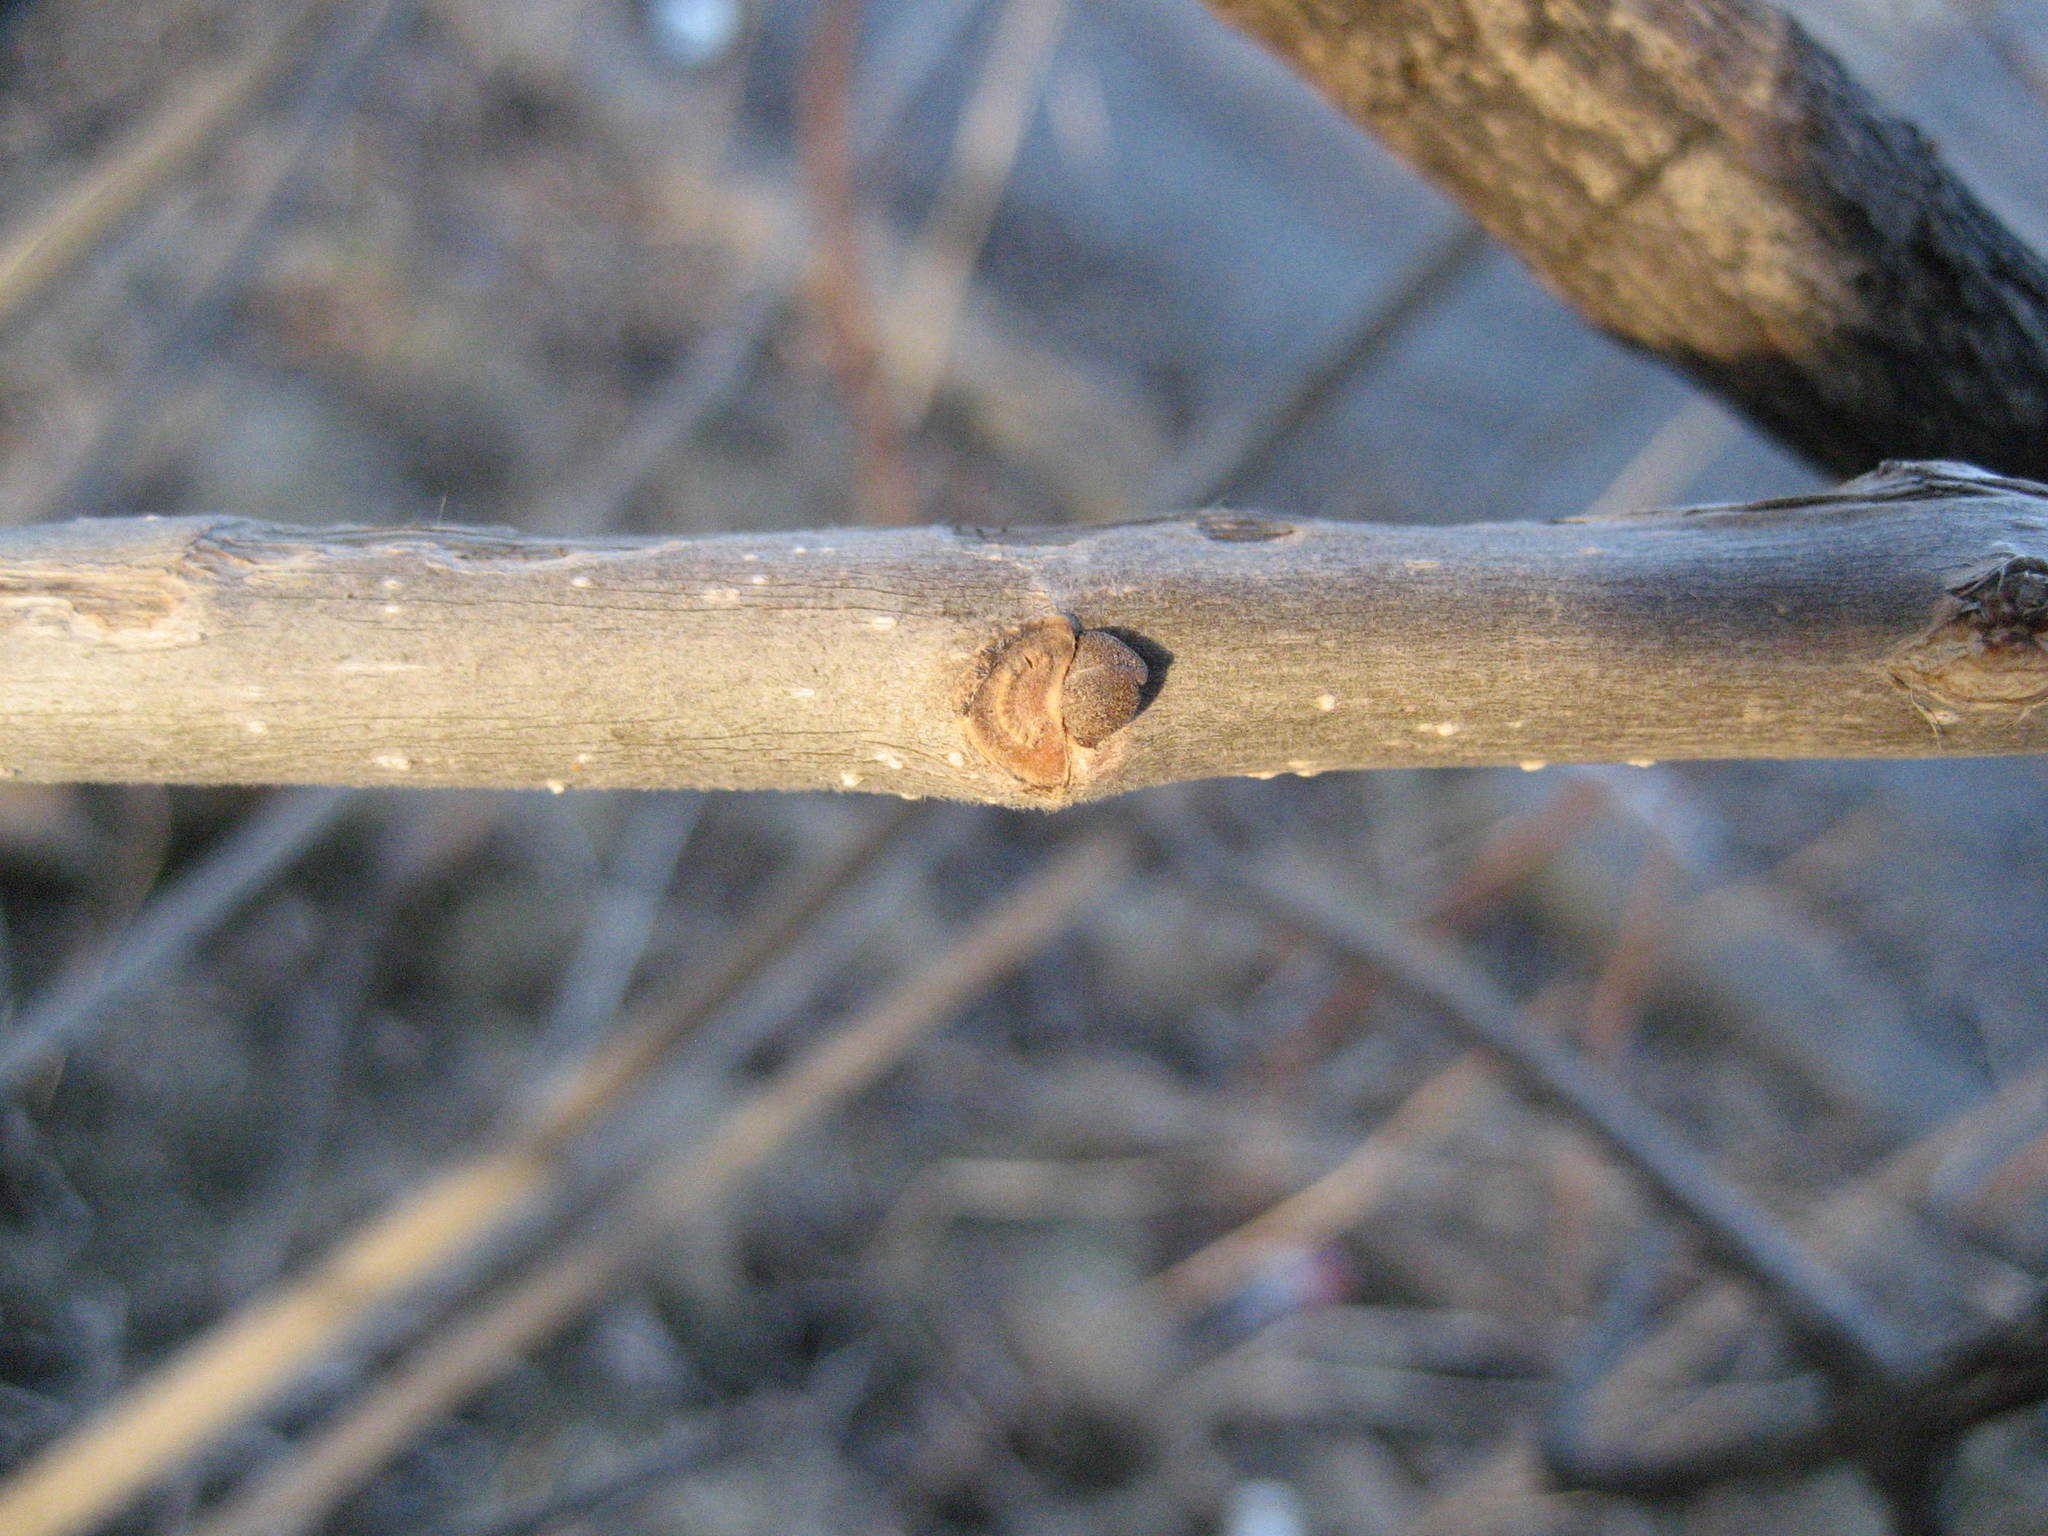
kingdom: Plantae
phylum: Tracheophyta
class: Magnoliopsida
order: Lamiales
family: Oleaceae
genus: Fraxinus
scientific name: Fraxinus pennsylvanica
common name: Green ash
